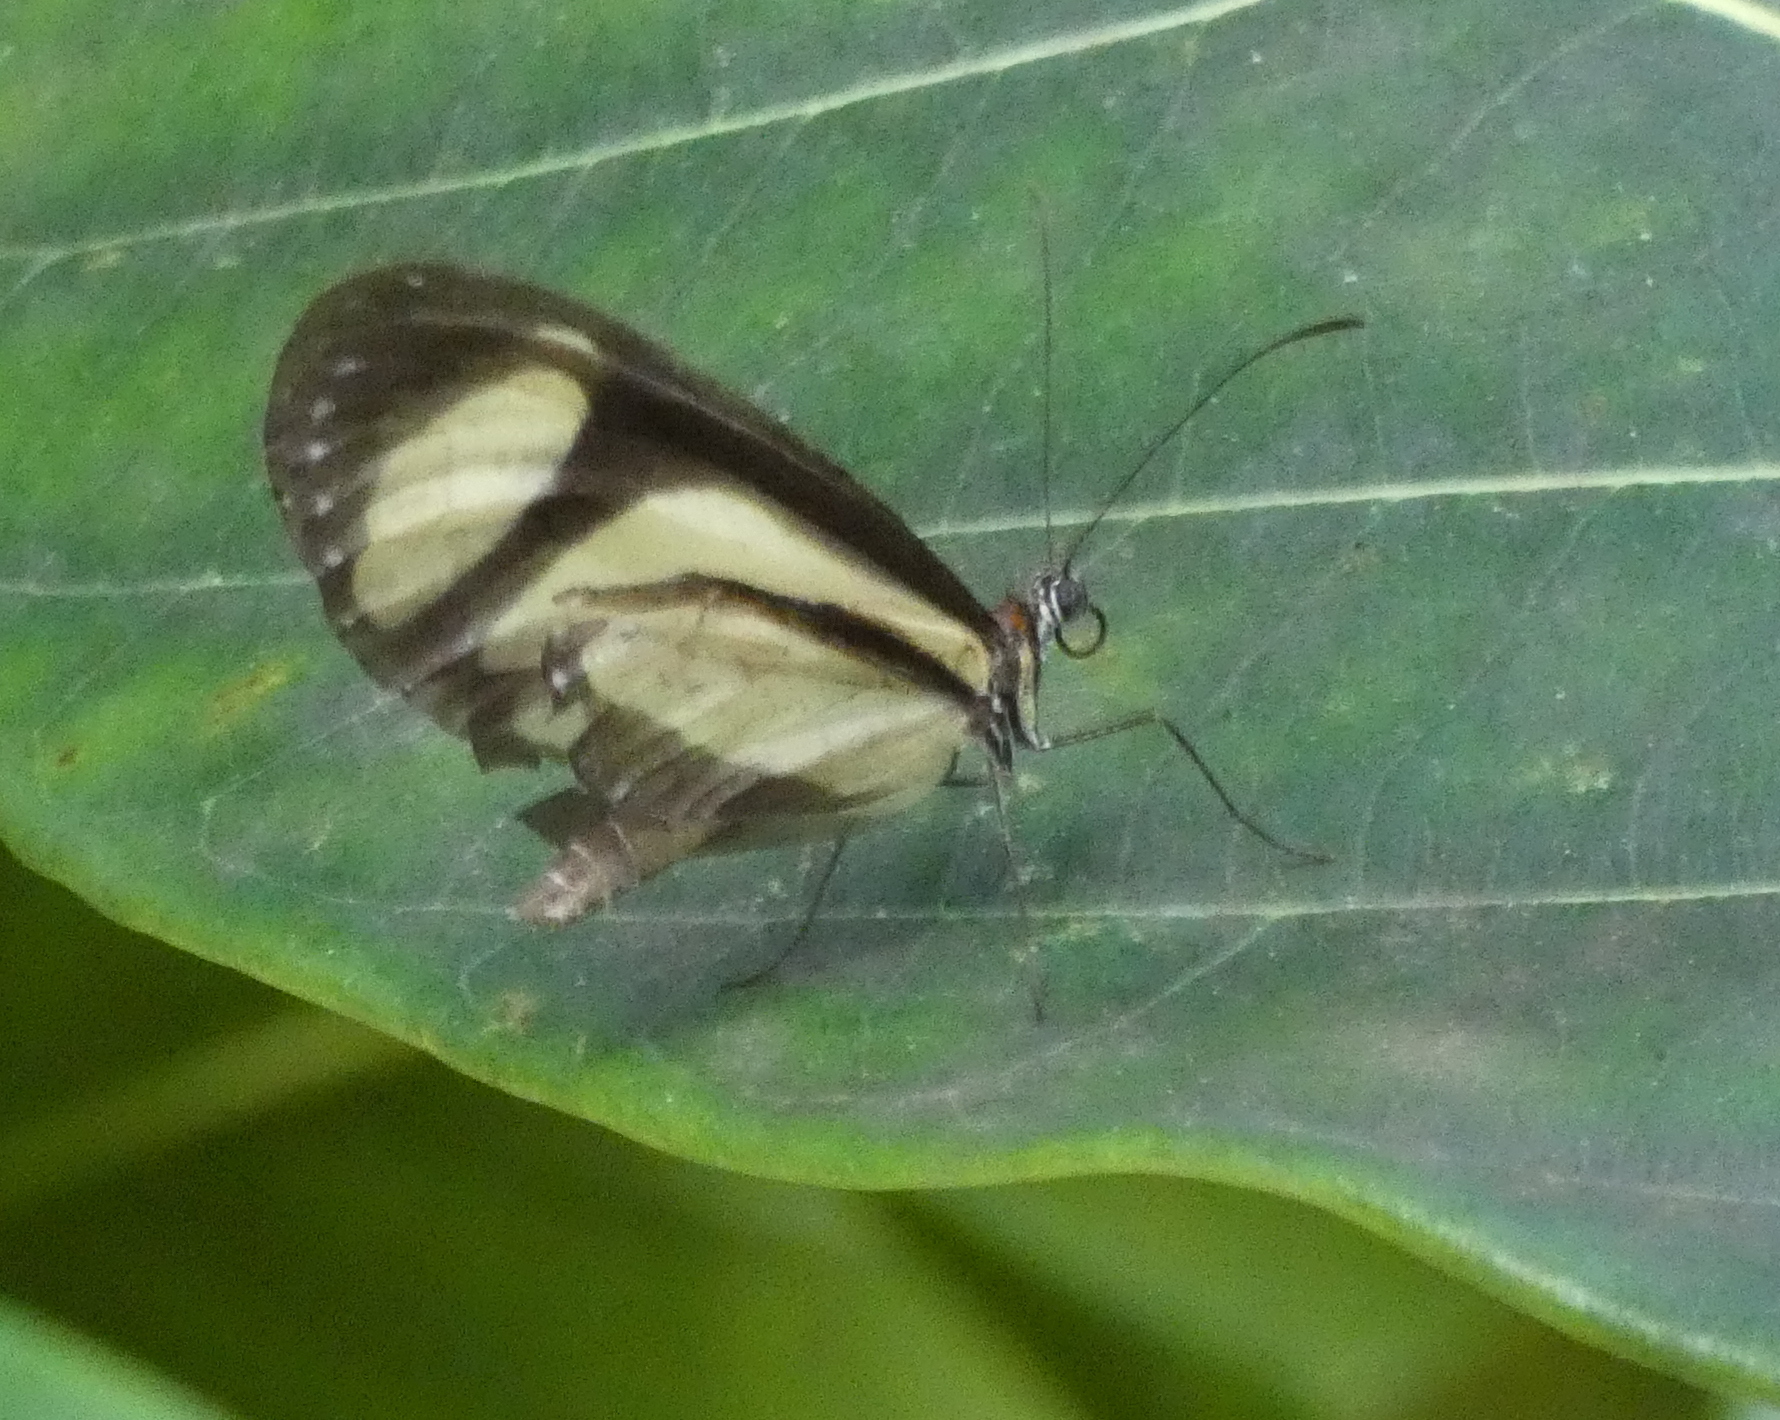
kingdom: Animalia
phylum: Arthropoda
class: Insecta
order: Lepidoptera
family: Nymphalidae
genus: Heteroscada
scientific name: Heteroscada reckia
